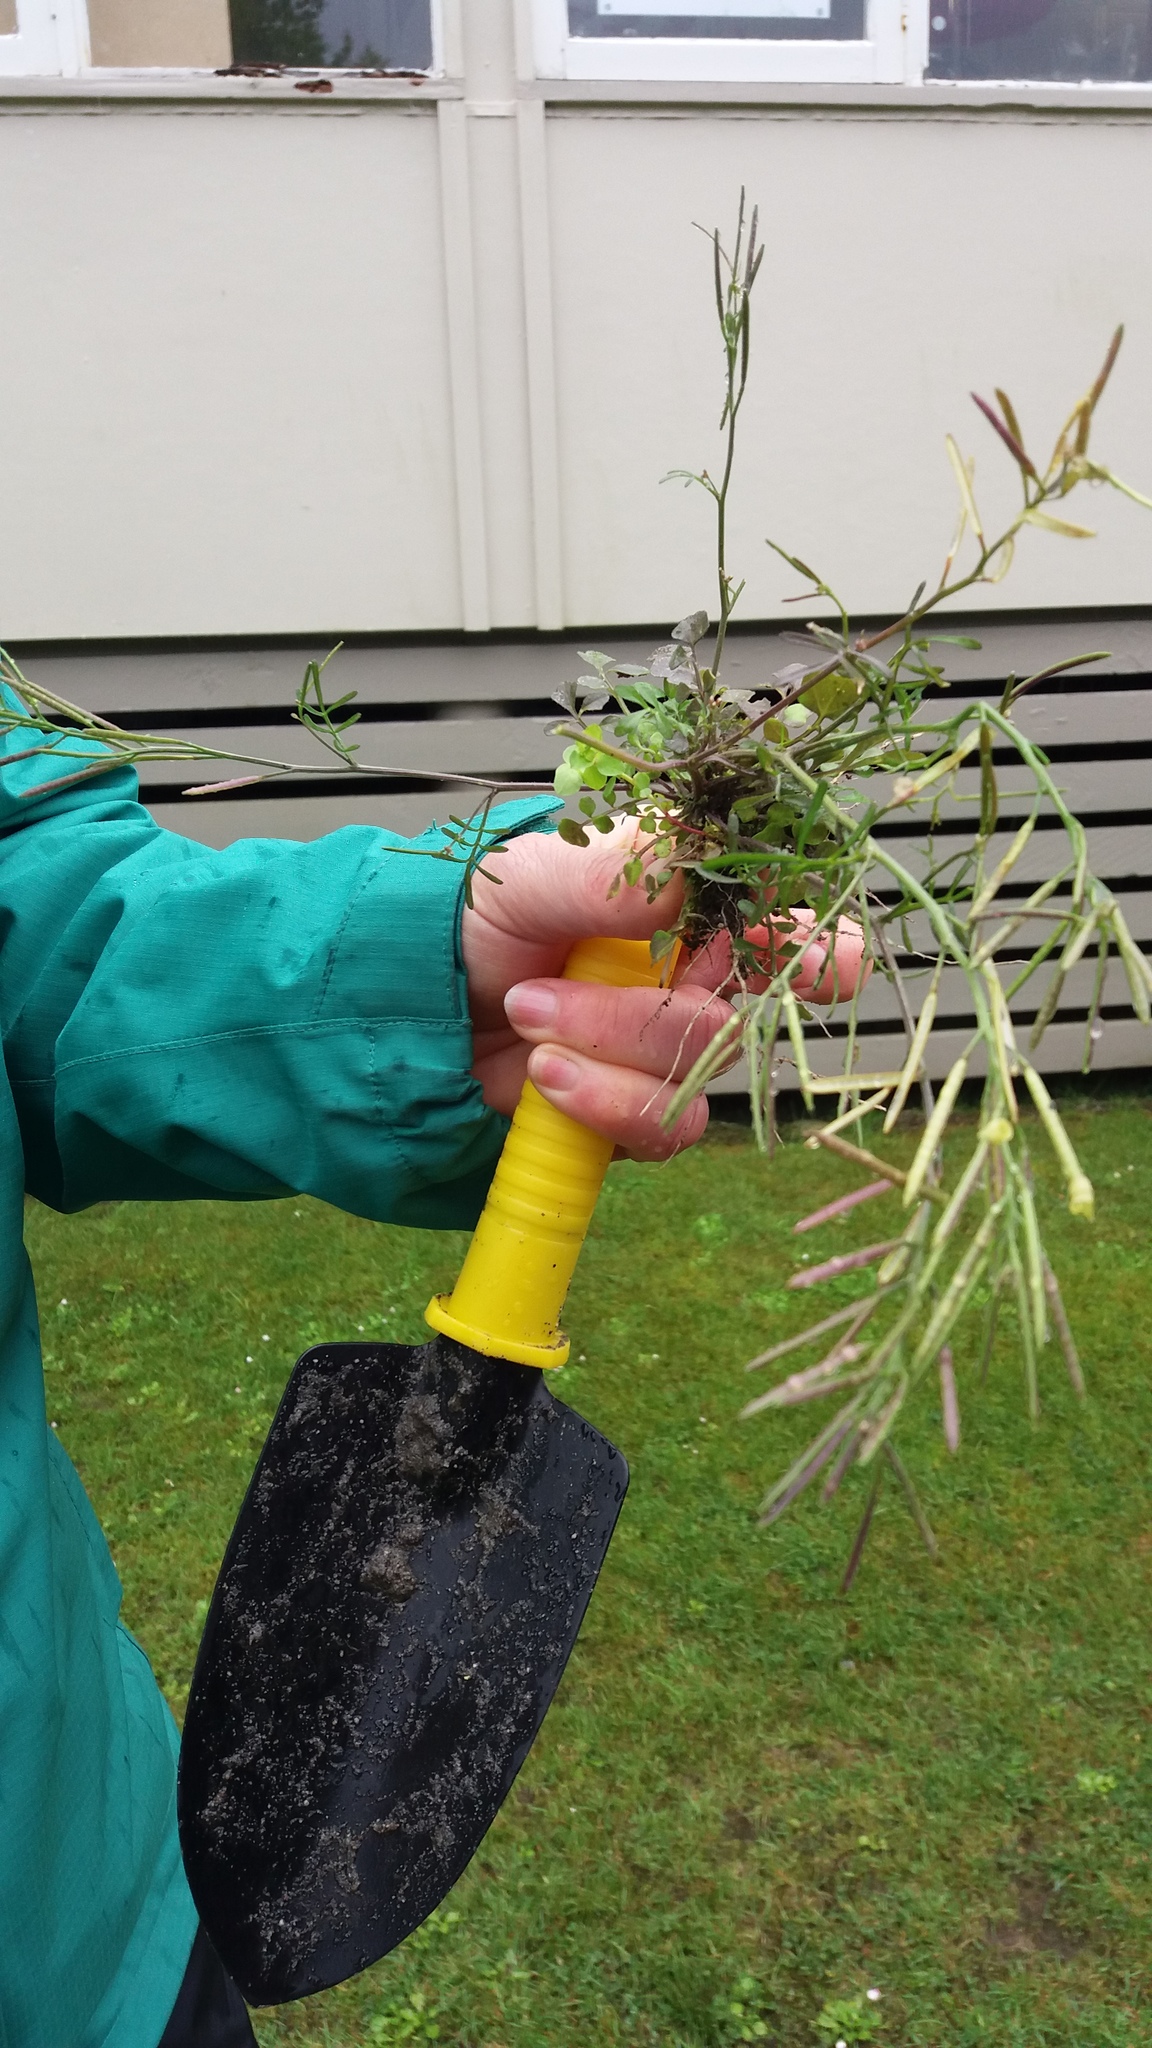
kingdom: Plantae
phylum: Tracheophyta
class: Magnoliopsida
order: Brassicales
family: Brassicaceae
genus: Cardamine
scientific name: Cardamine hirsuta
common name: Hairy bittercress
